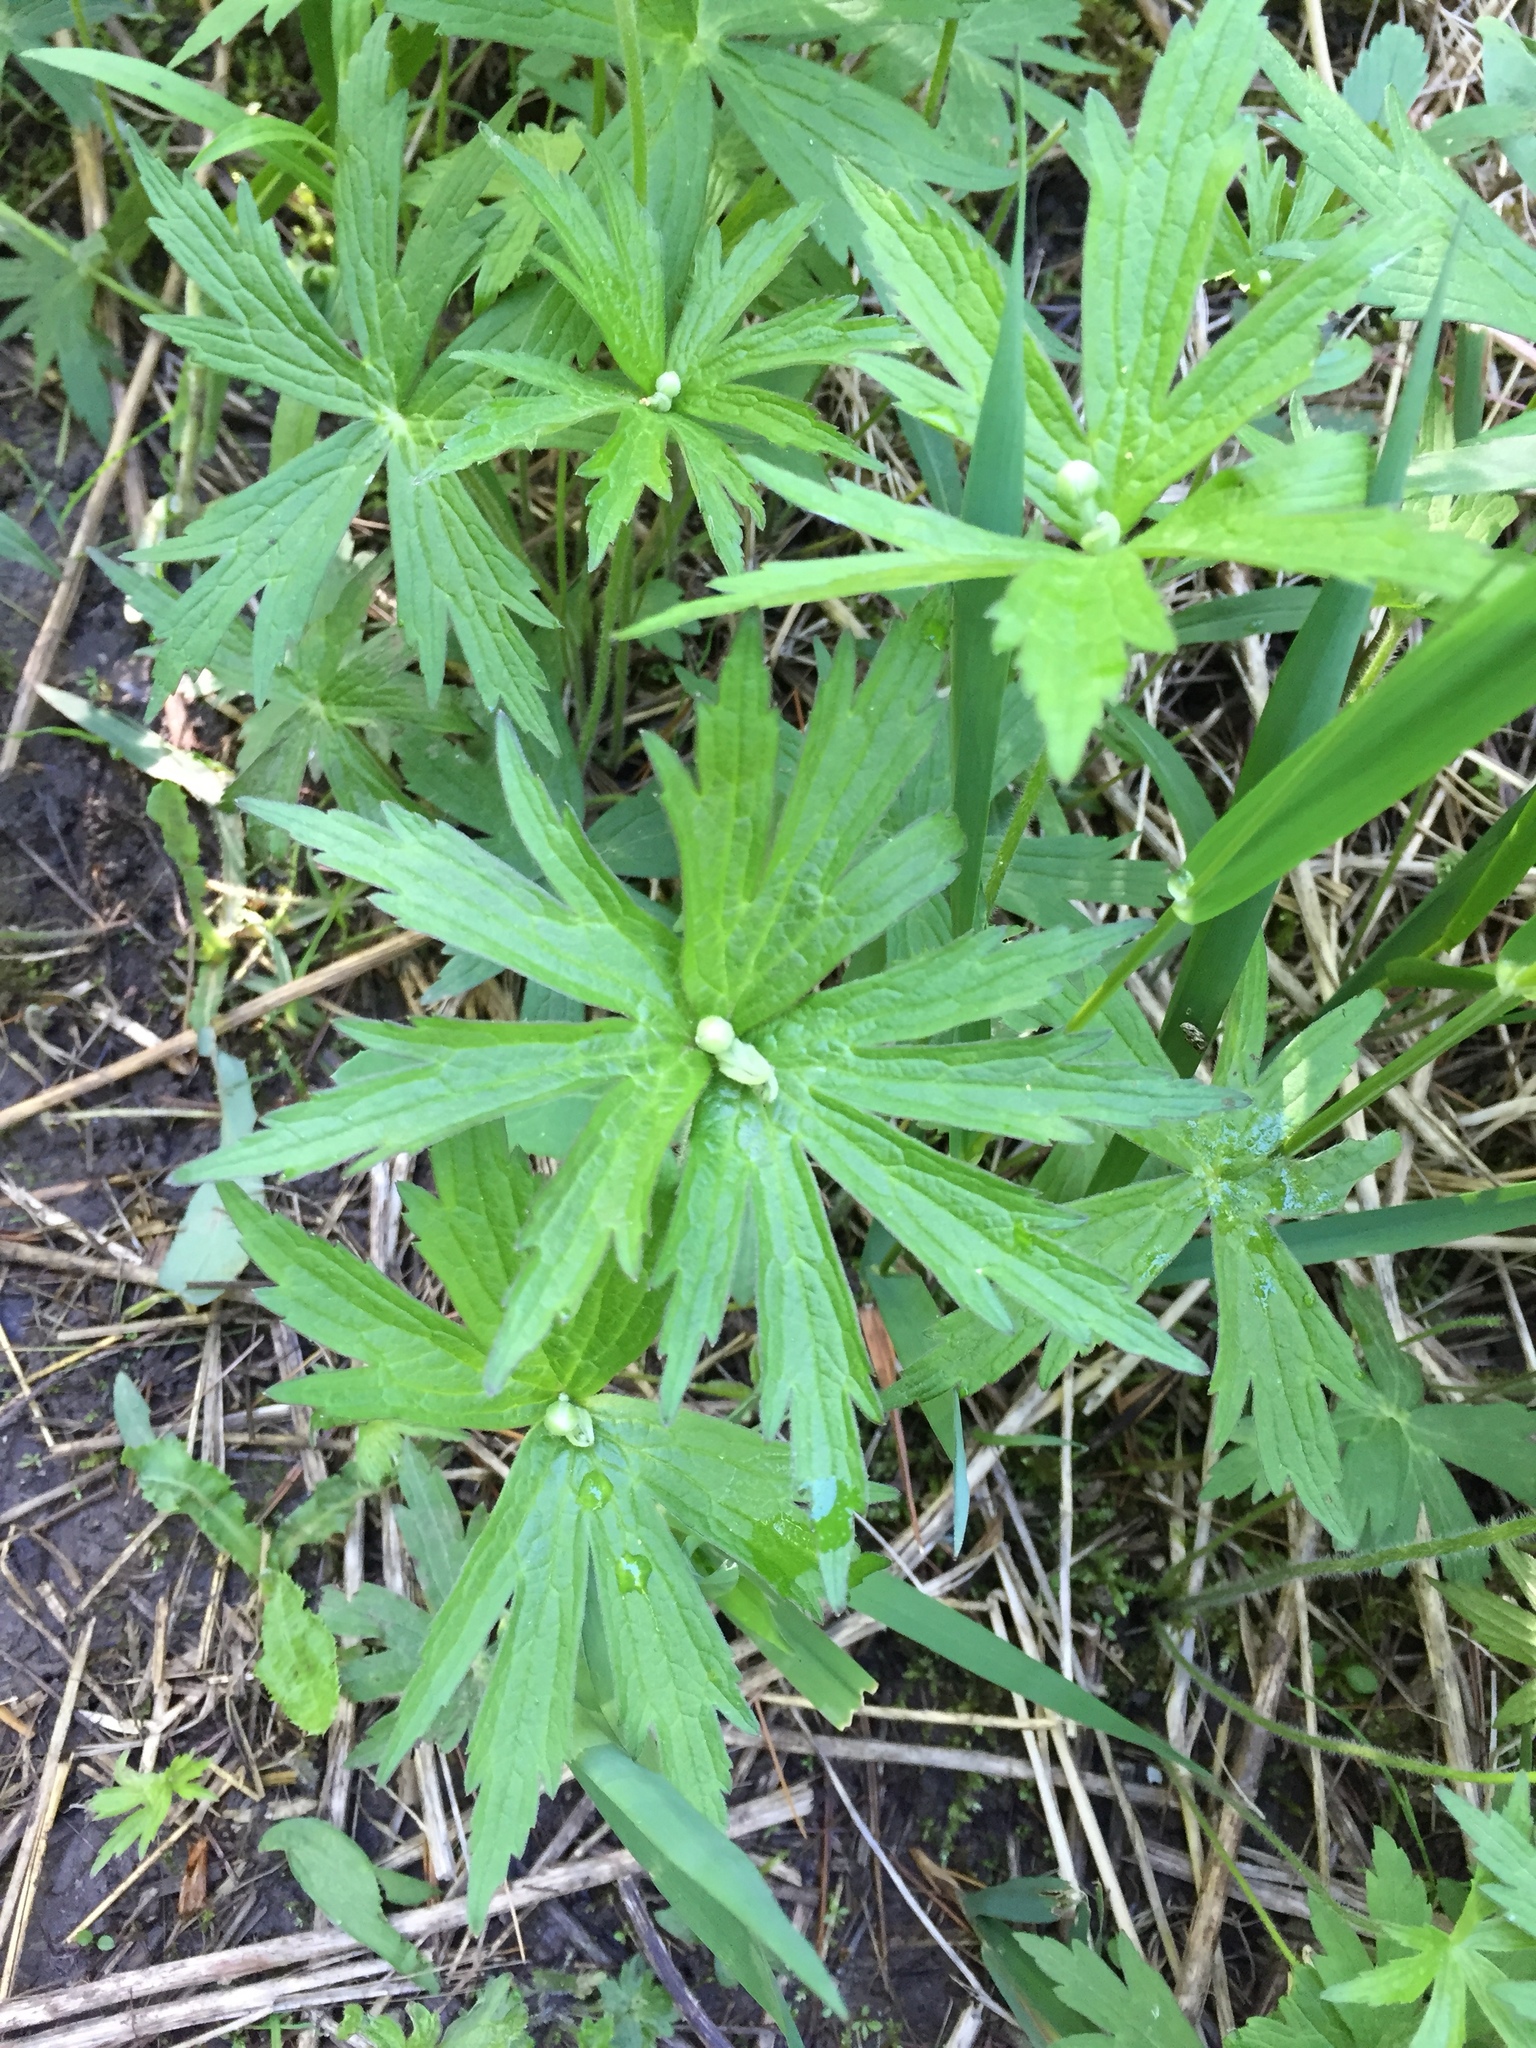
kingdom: Plantae
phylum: Tracheophyta
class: Magnoliopsida
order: Ranunculales
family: Ranunculaceae
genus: Anemonastrum
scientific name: Anemonastrum canadense
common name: Canada anemone
